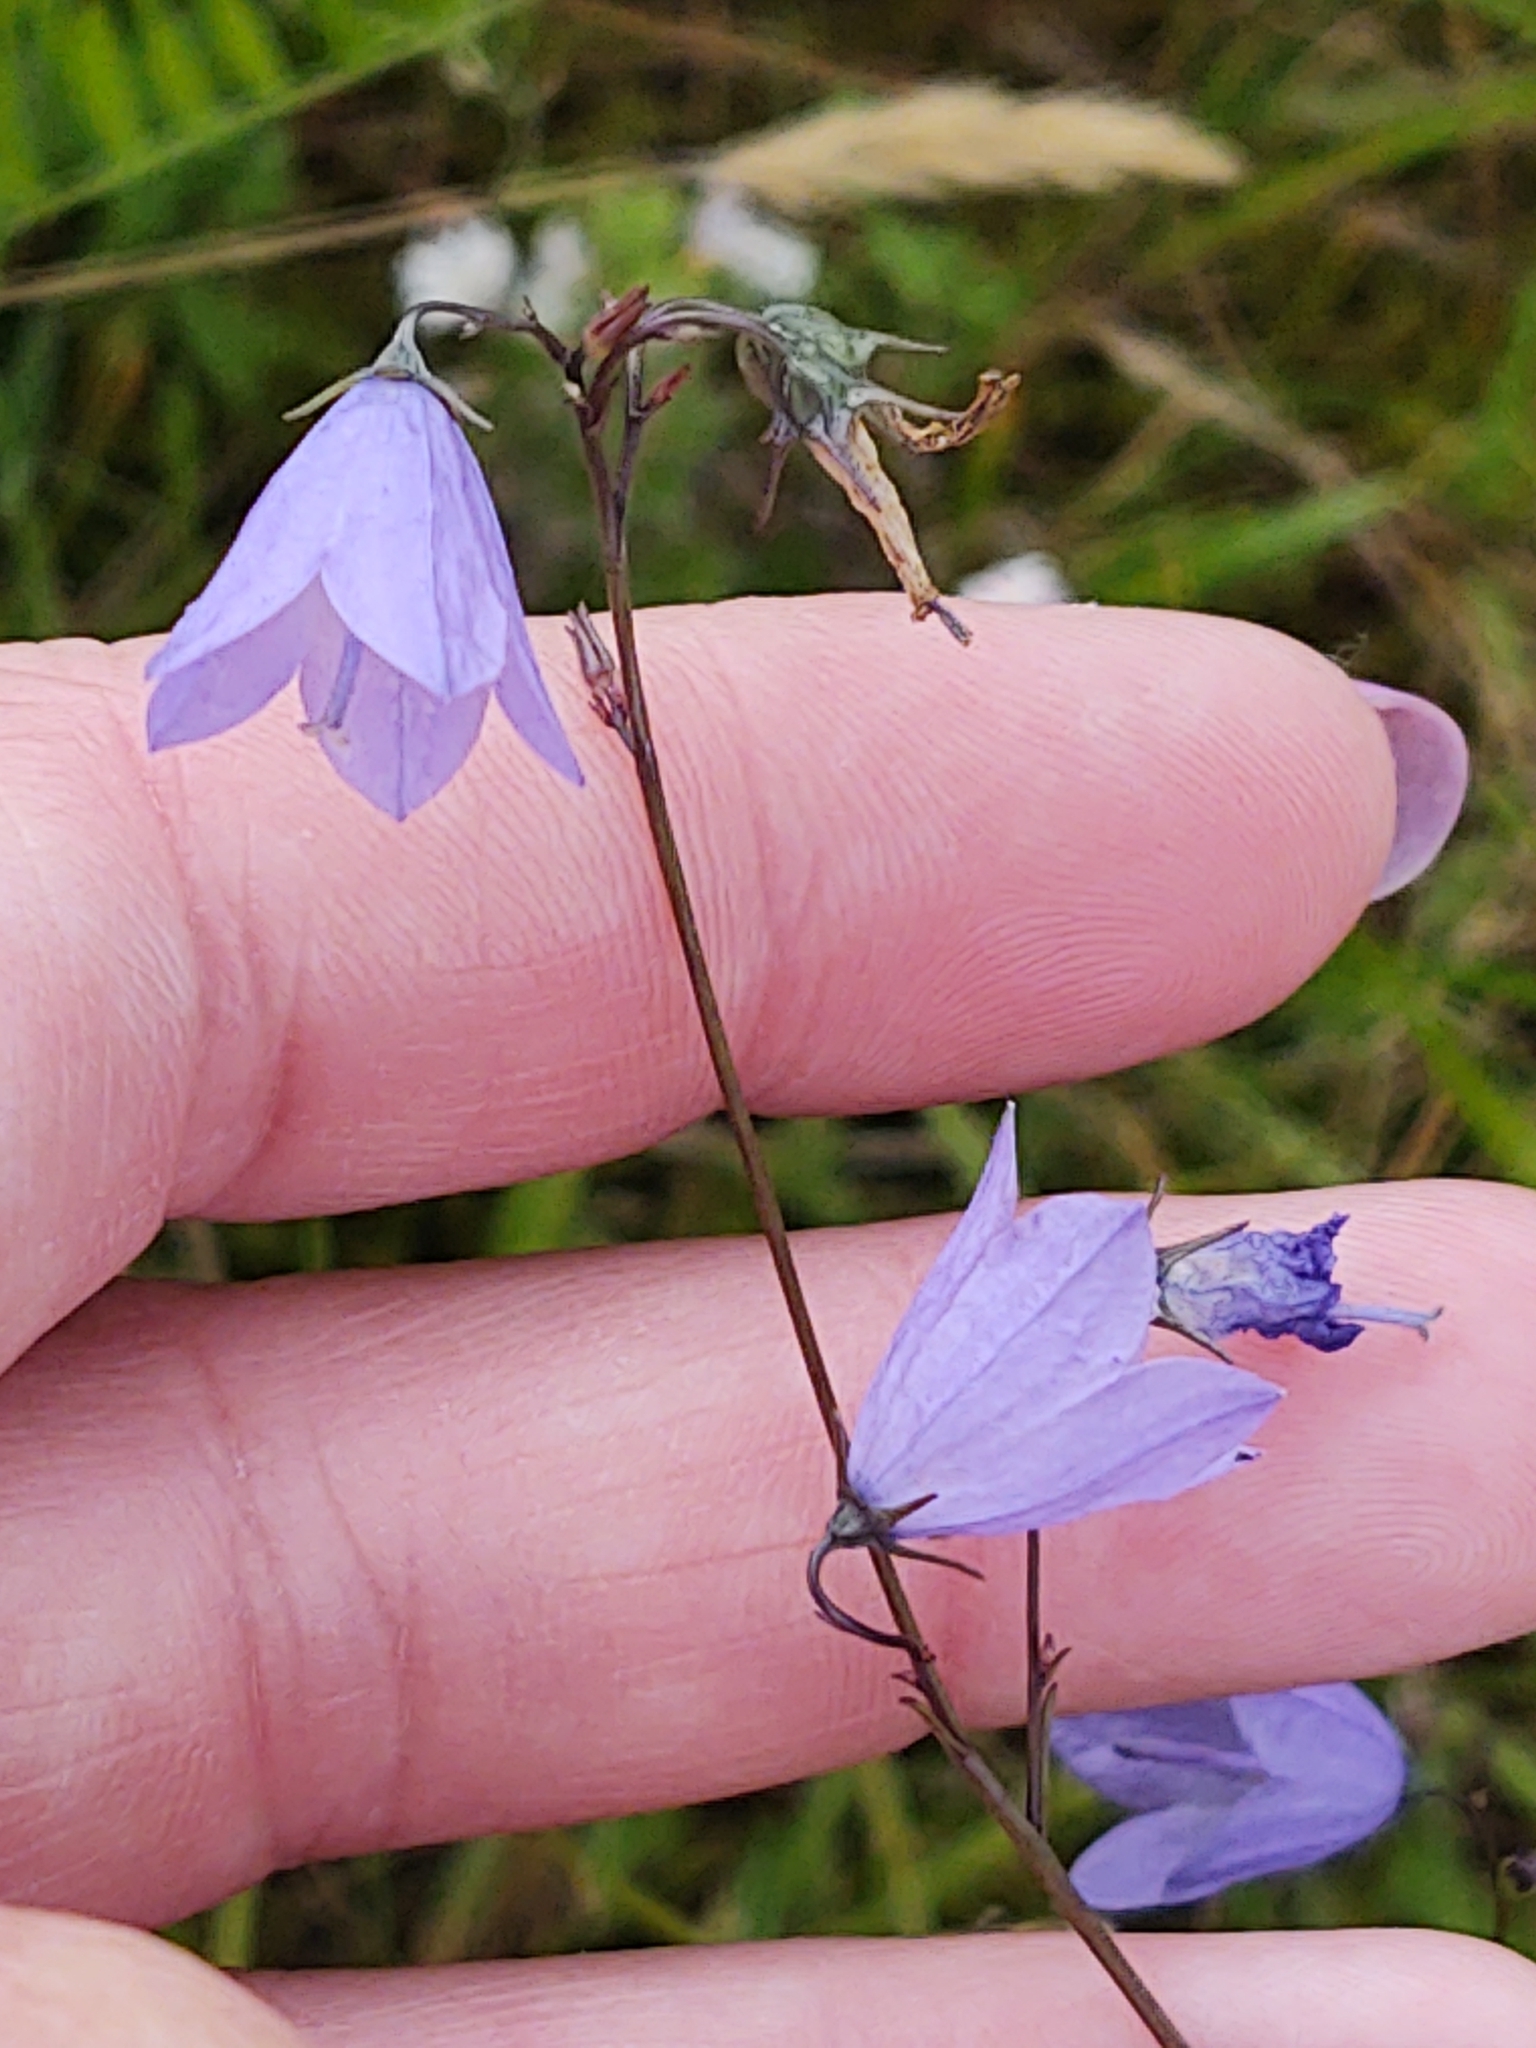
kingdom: Plantae
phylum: Tracheophyta
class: Magnoliopsida
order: Asterales
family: Campanulaceae
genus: Campanula
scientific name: Campanula rotundifolia
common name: Harebell
